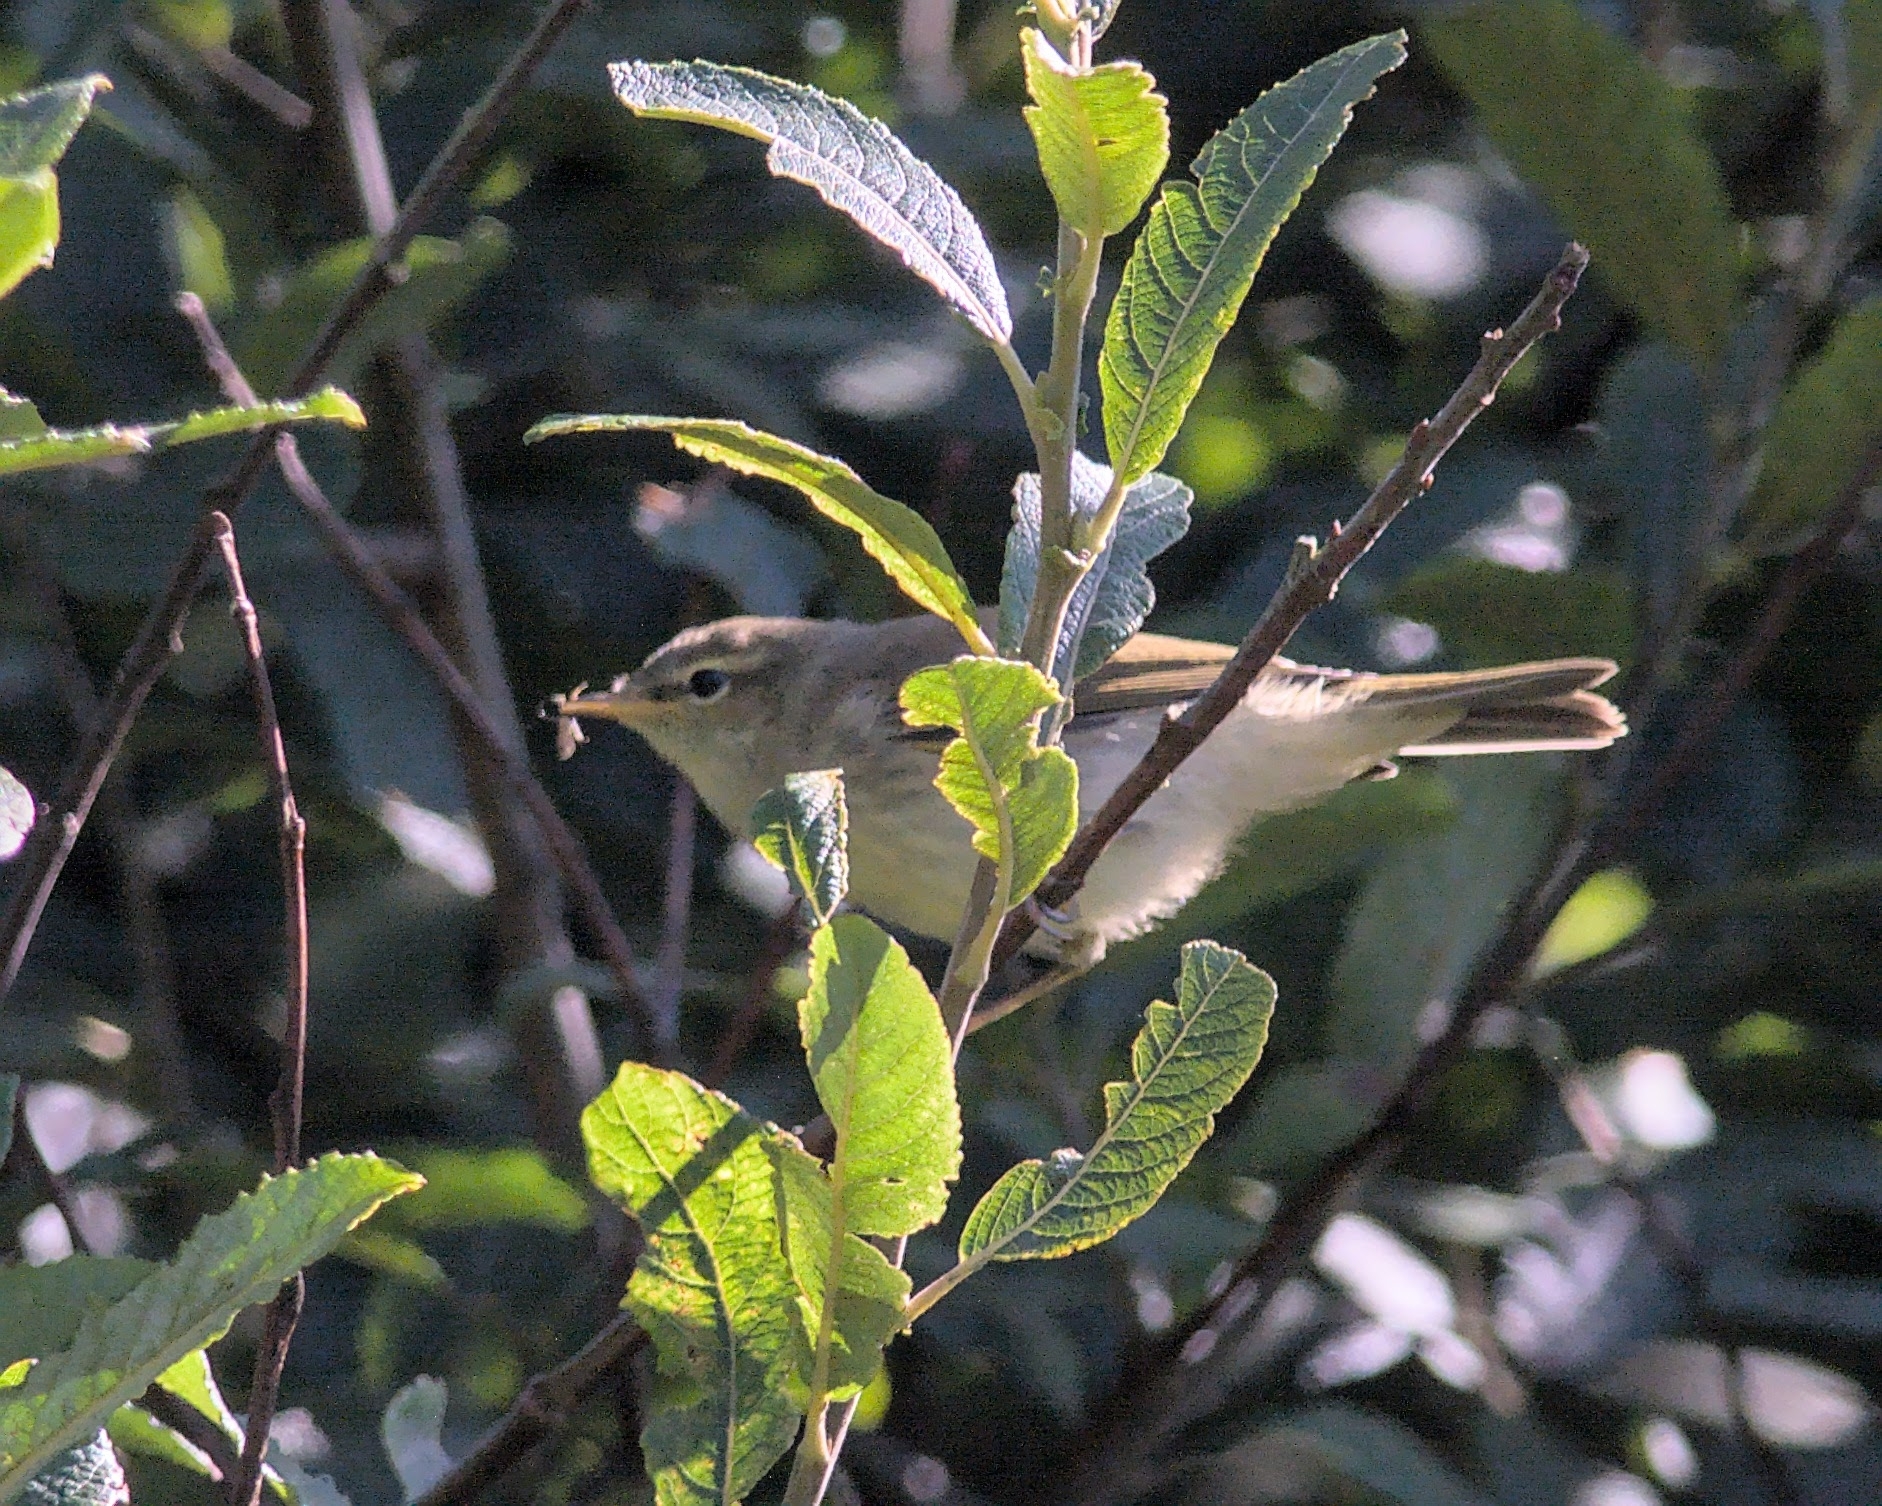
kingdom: Animalia
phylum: Chordata
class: Aves
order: Passeriformes
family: Phylloscopidae
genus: Phylloscopus
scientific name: Phylloscopus trochilus
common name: Willow warbler
